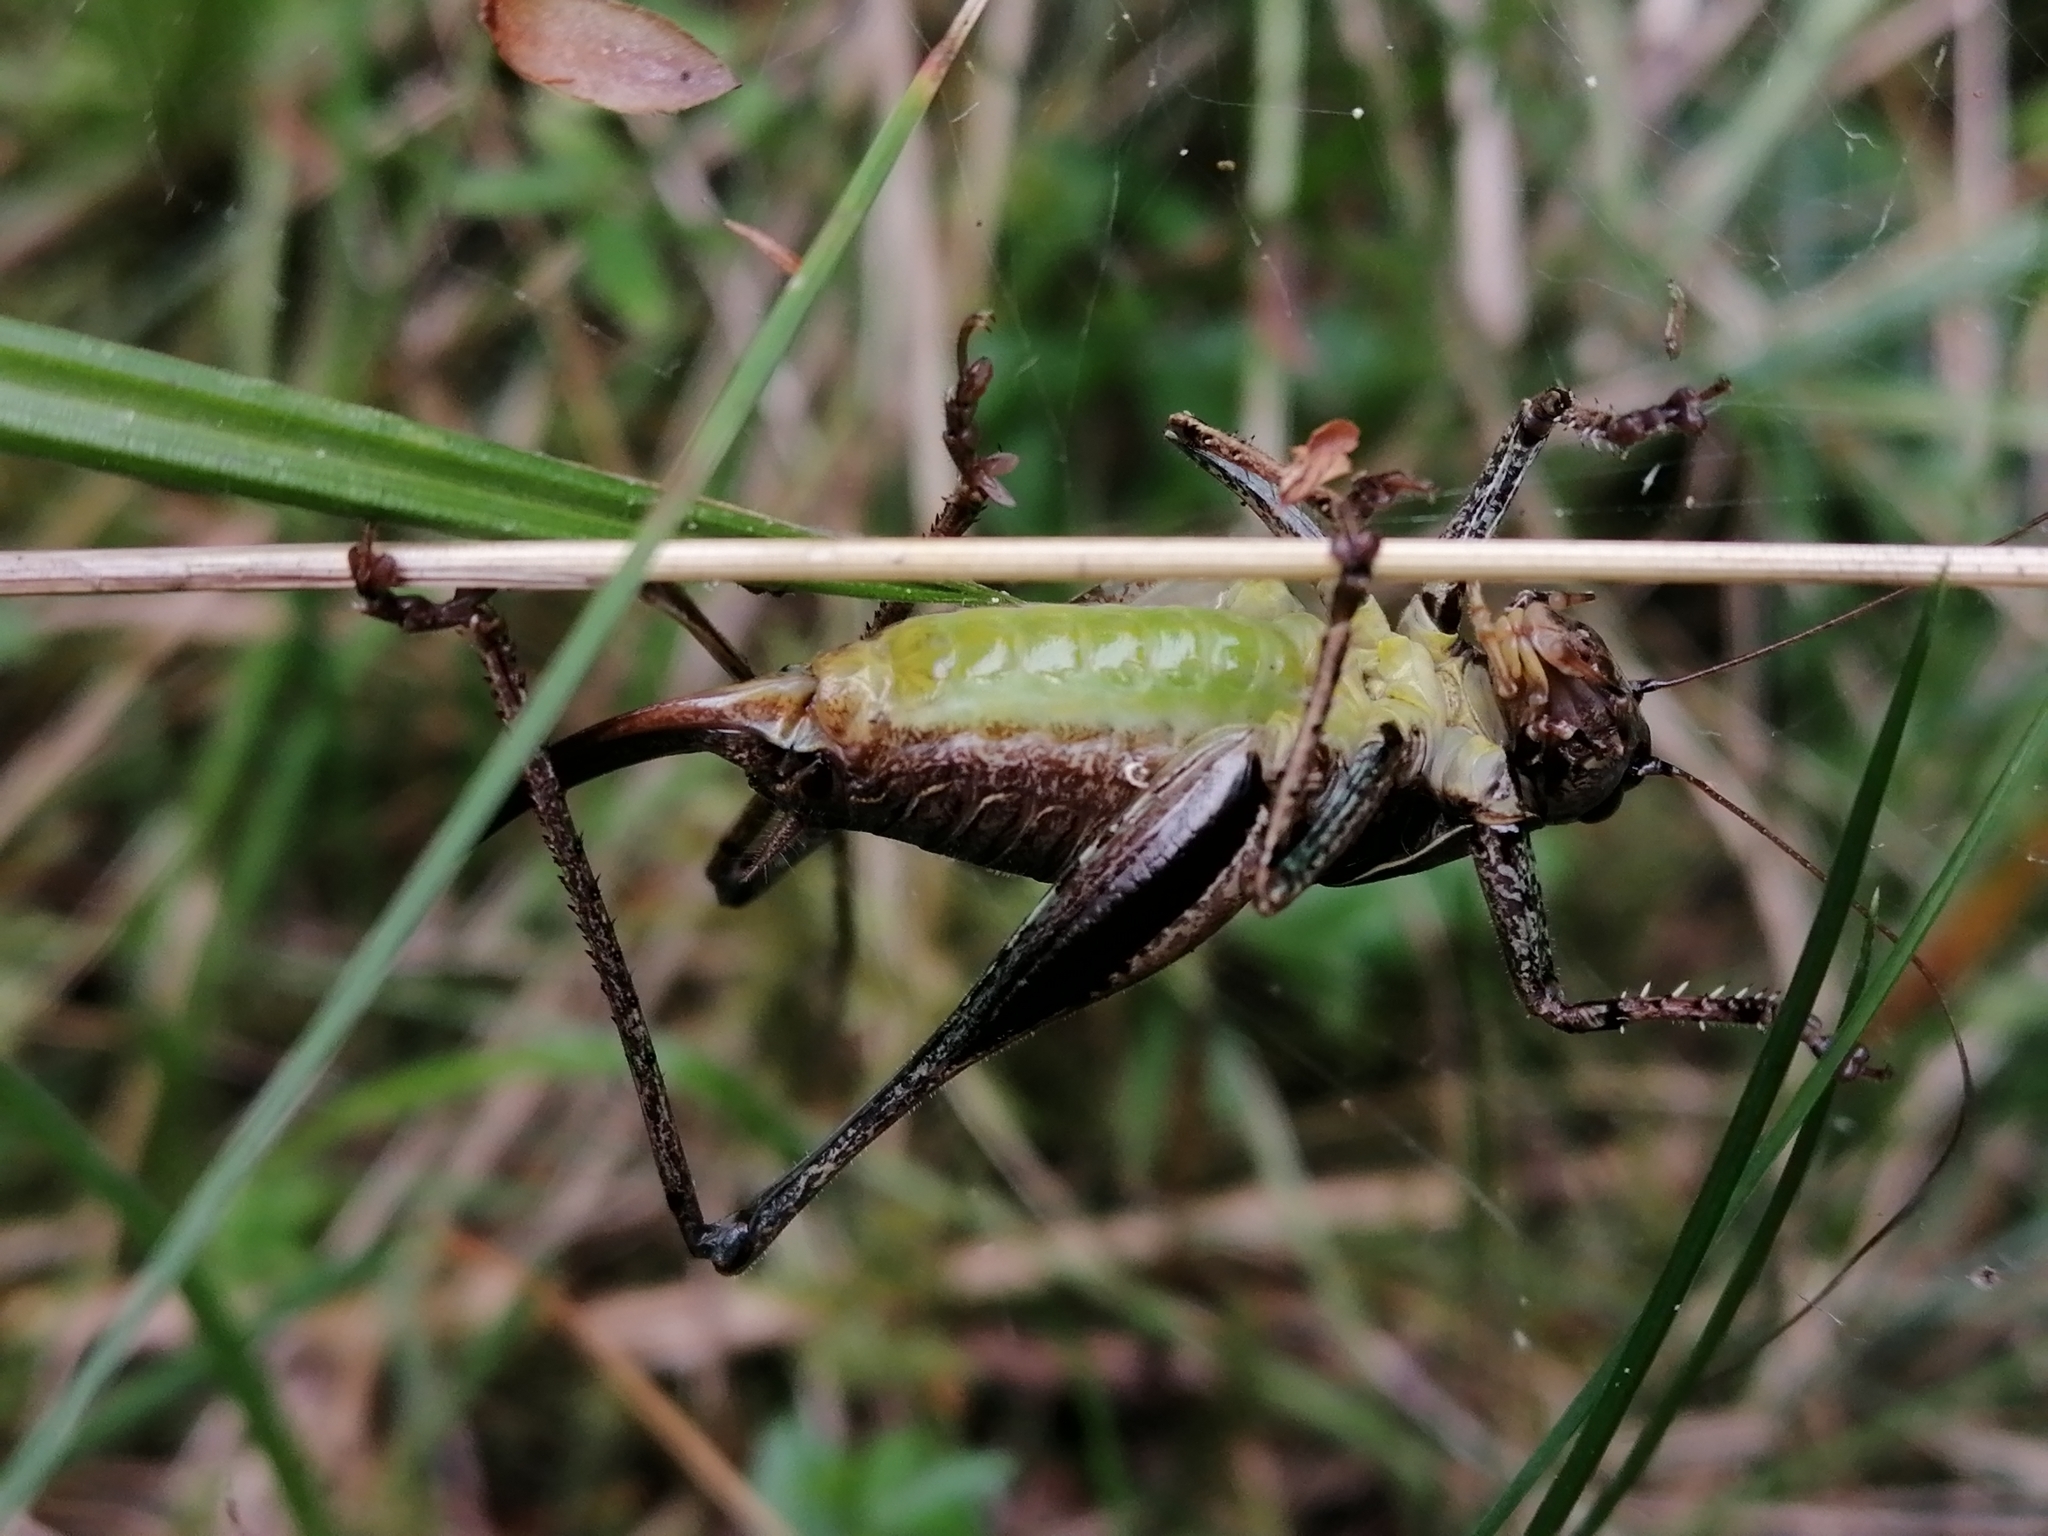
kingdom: Animalia
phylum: Arthropoda
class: Insecta
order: Orthoptera
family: Tettigoniidae
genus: Pholidoptera
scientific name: Pholidoptera griseoaptera
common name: Dark bush-cricket
